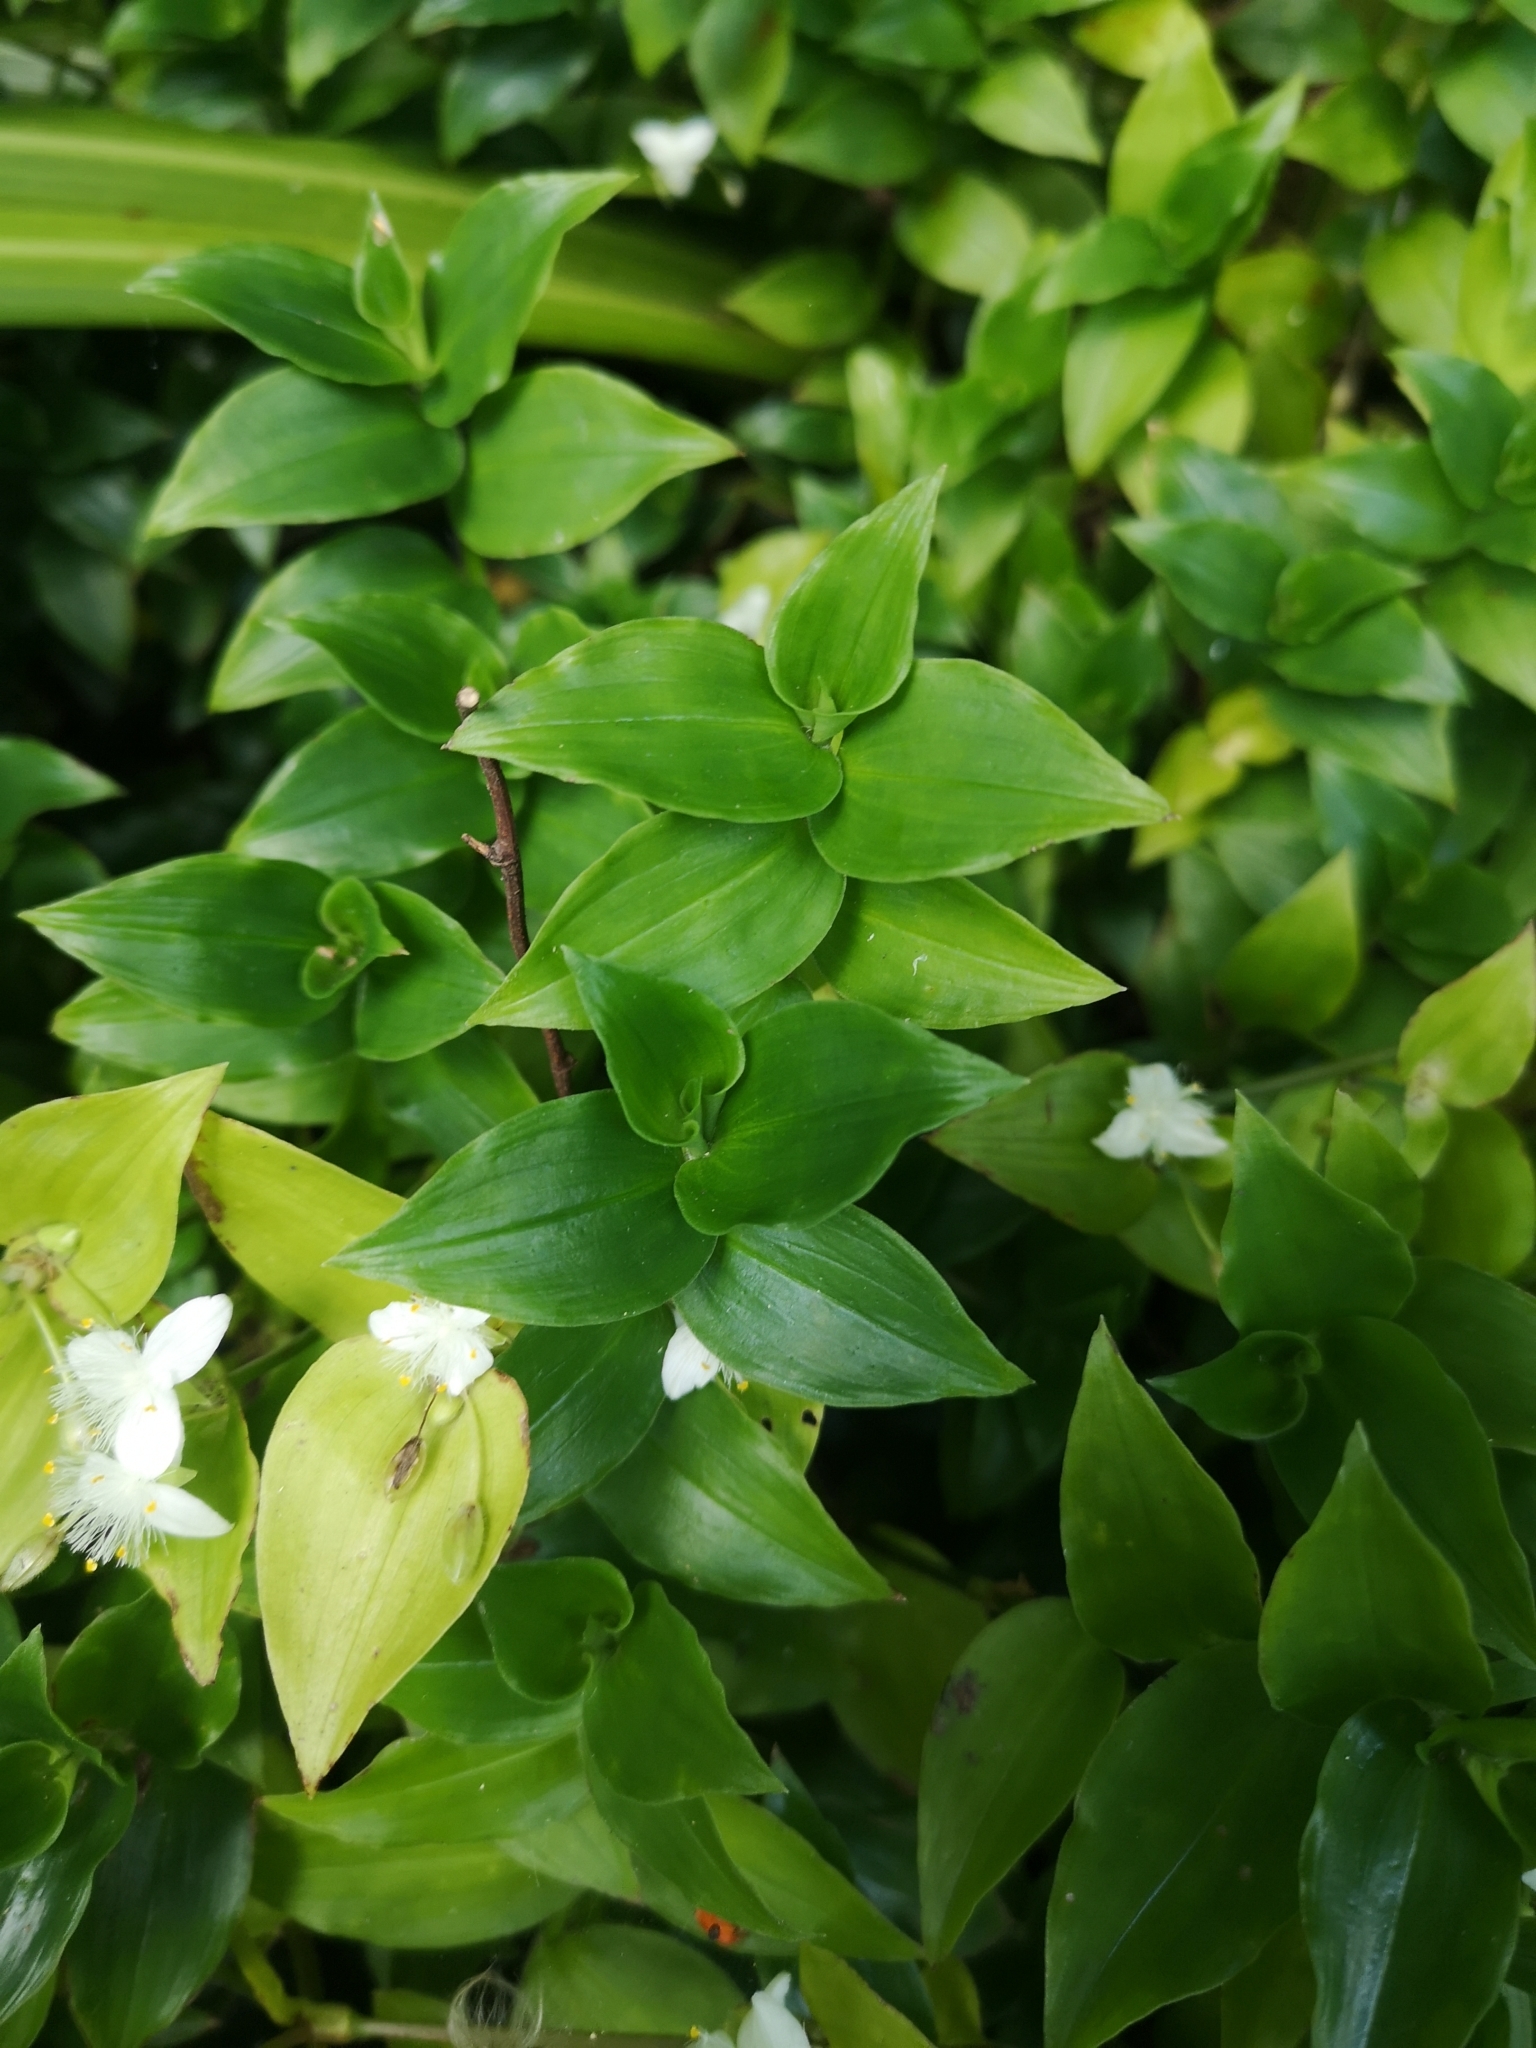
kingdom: Plantae
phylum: Tracheophyta
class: Liliopsida
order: Commelinales
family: Commelinaceae
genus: Tradescantia
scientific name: Tradescantia fluminensis
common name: Wandering-jew
